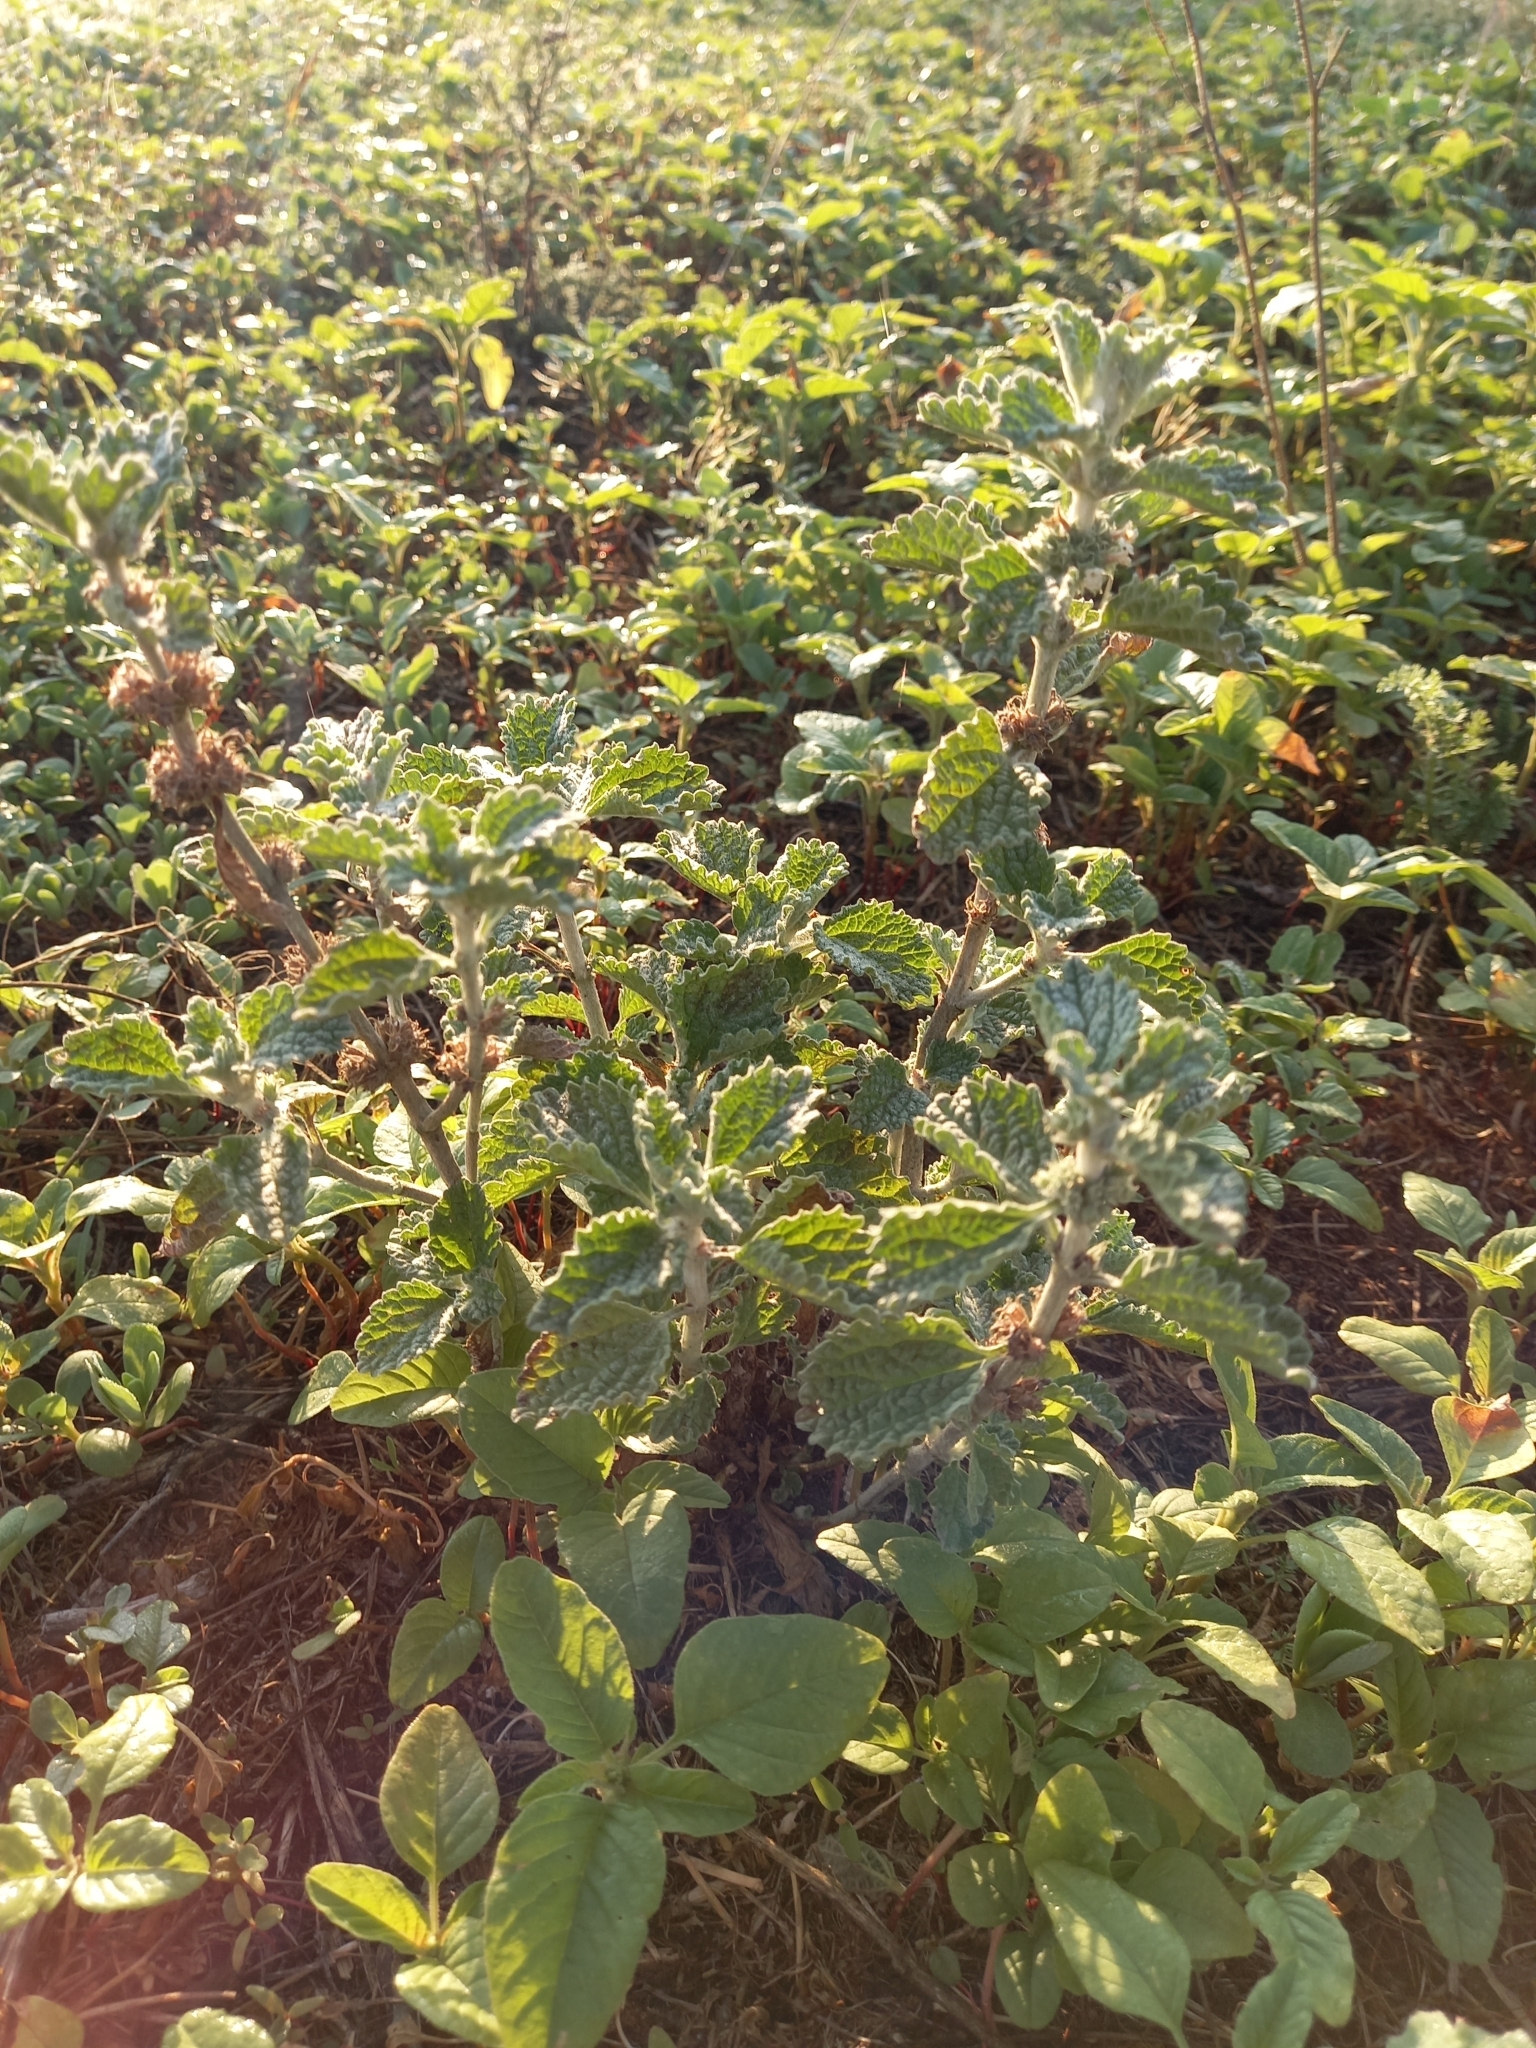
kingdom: Plantae
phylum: Tracheophyta
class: Magnoliopsida
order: Lamiales
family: Lamiaceae
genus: Marrubium
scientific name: Marrubium vulgare
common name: Horehound
